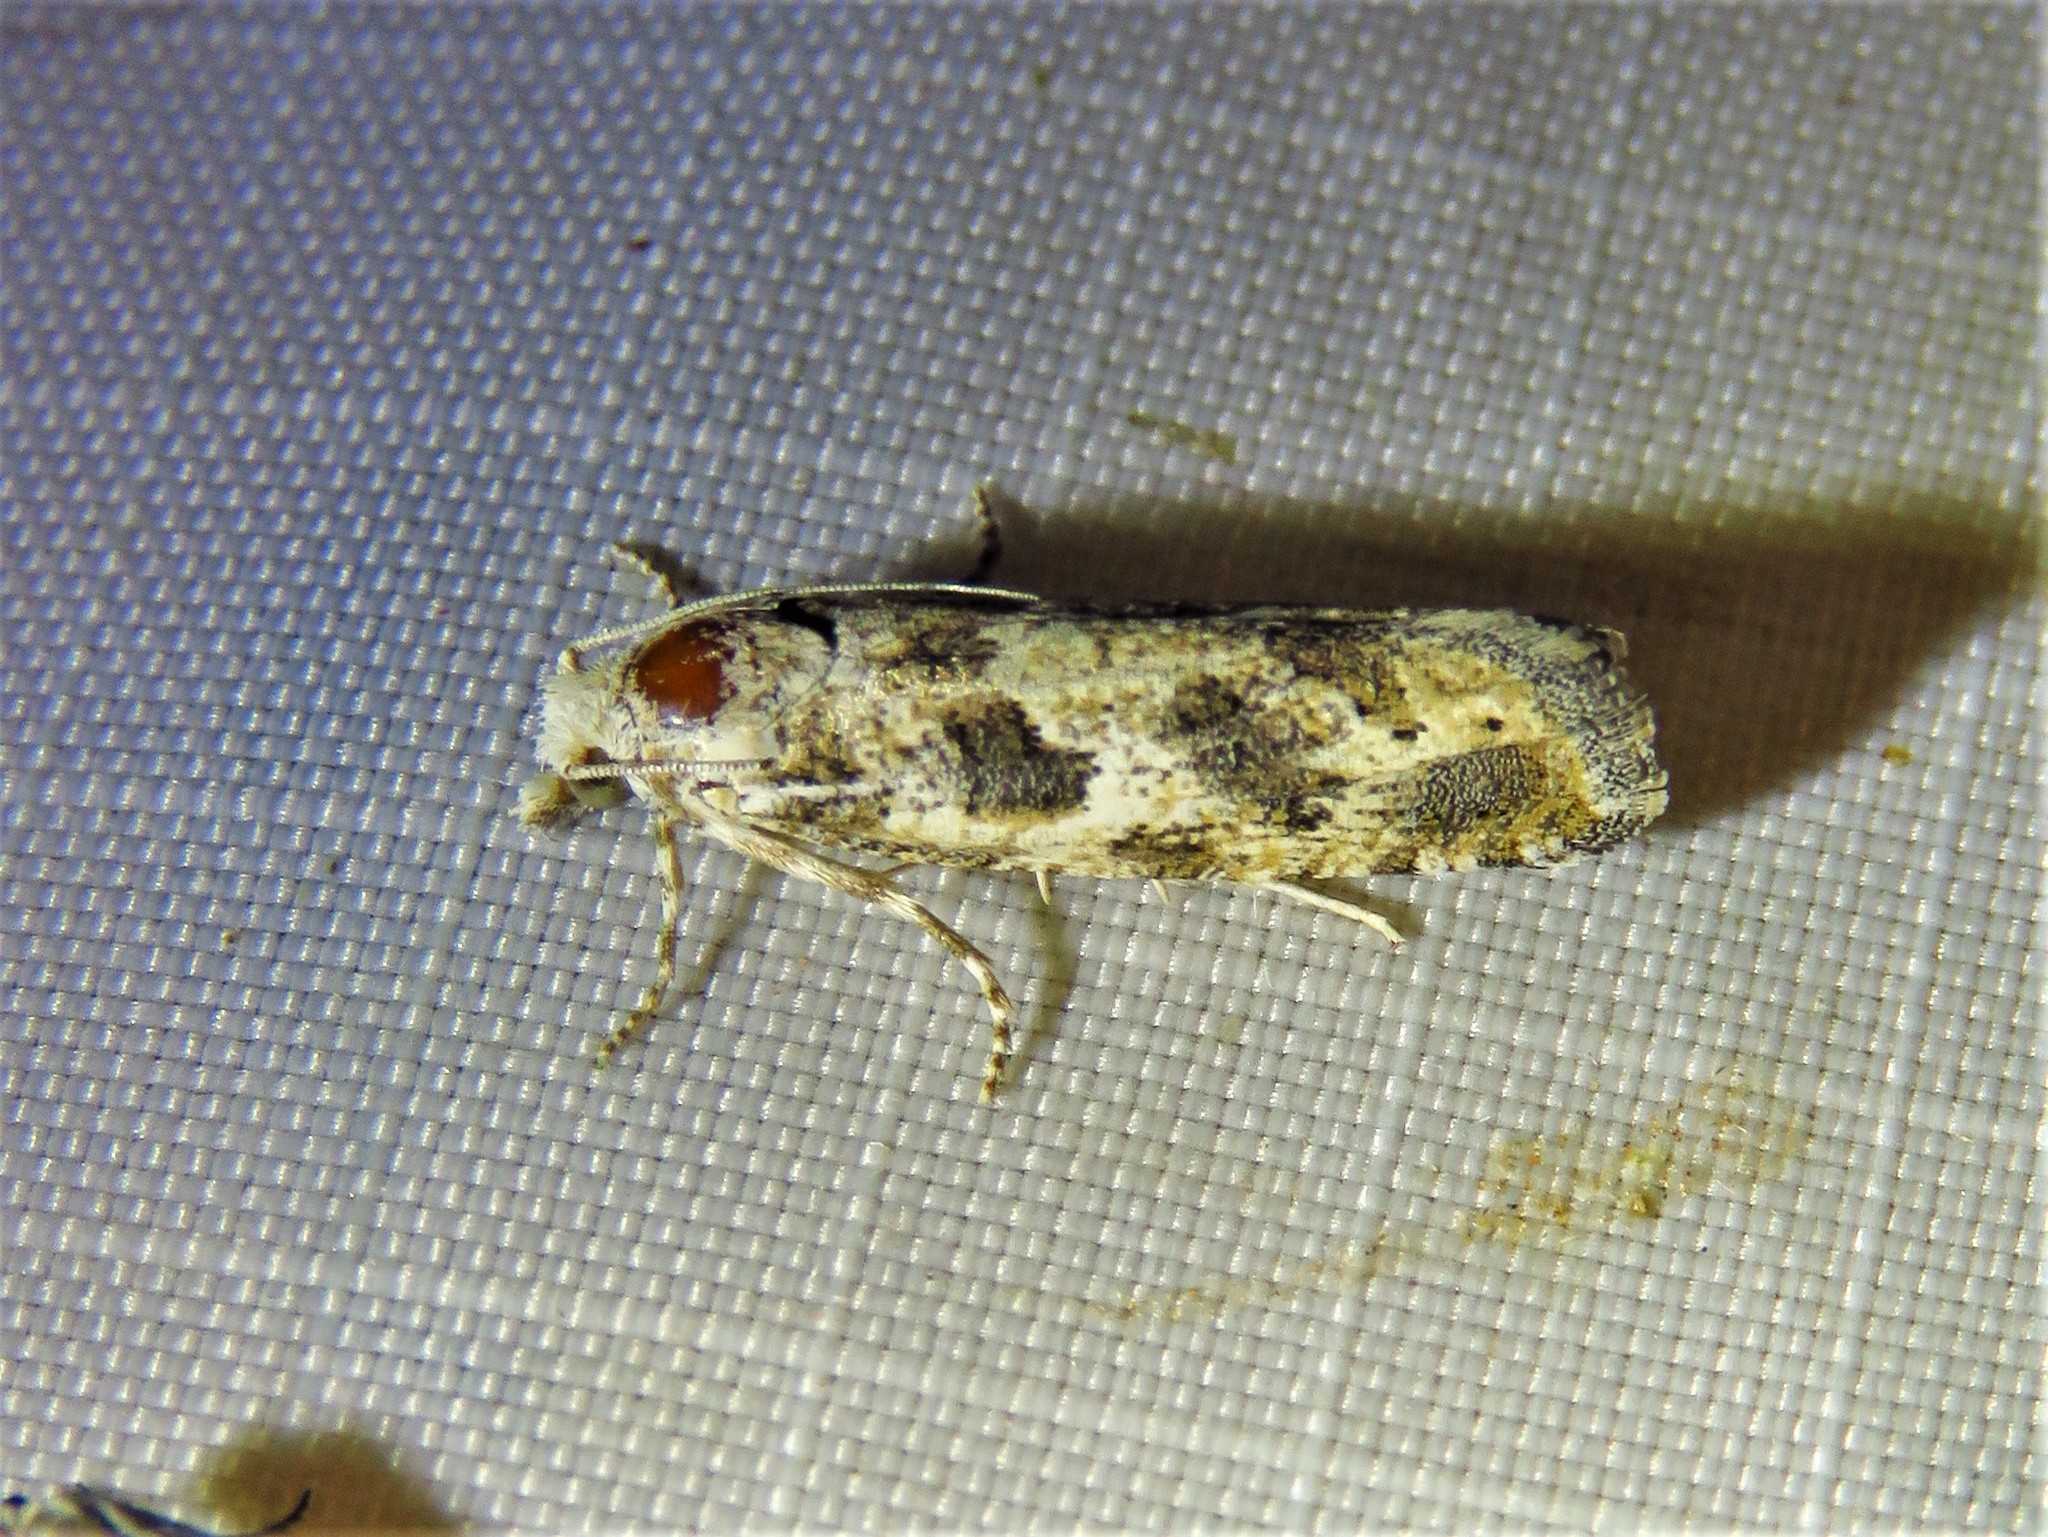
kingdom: Animalia
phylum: Arthropoda
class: Insecta
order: Lepidoptera
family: Tortricidae
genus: Pelochrista
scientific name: Pelochrista reversana
